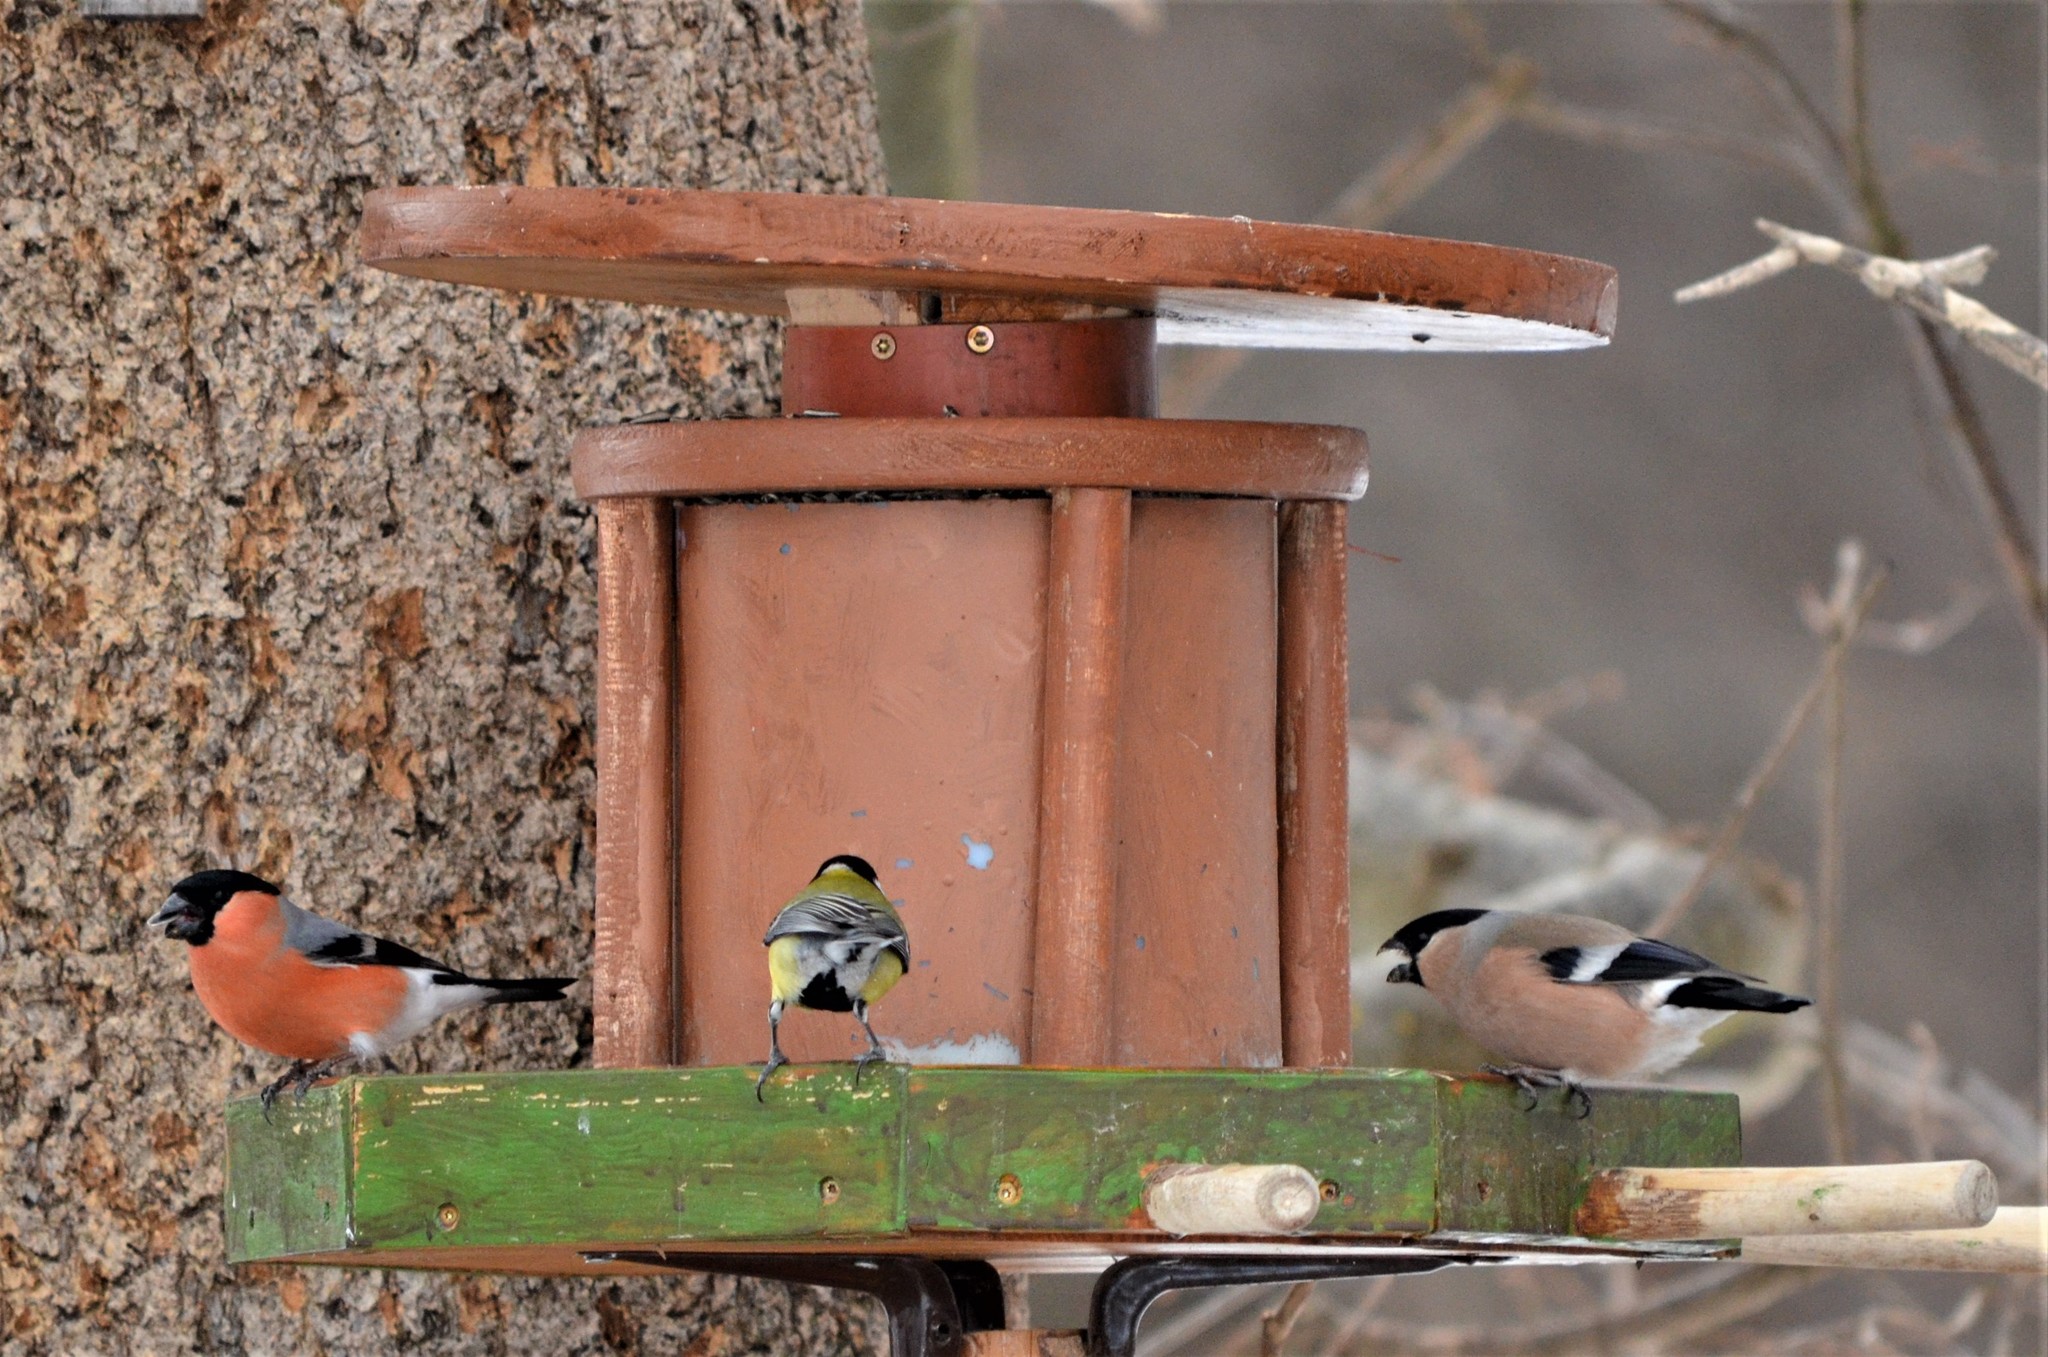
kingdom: Animalia
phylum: Chordata
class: Aves
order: Passeriformes
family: Fringillidae
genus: Pyrrhula
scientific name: Pyrrhula pyrrhula
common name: Eurasian bullfinch
